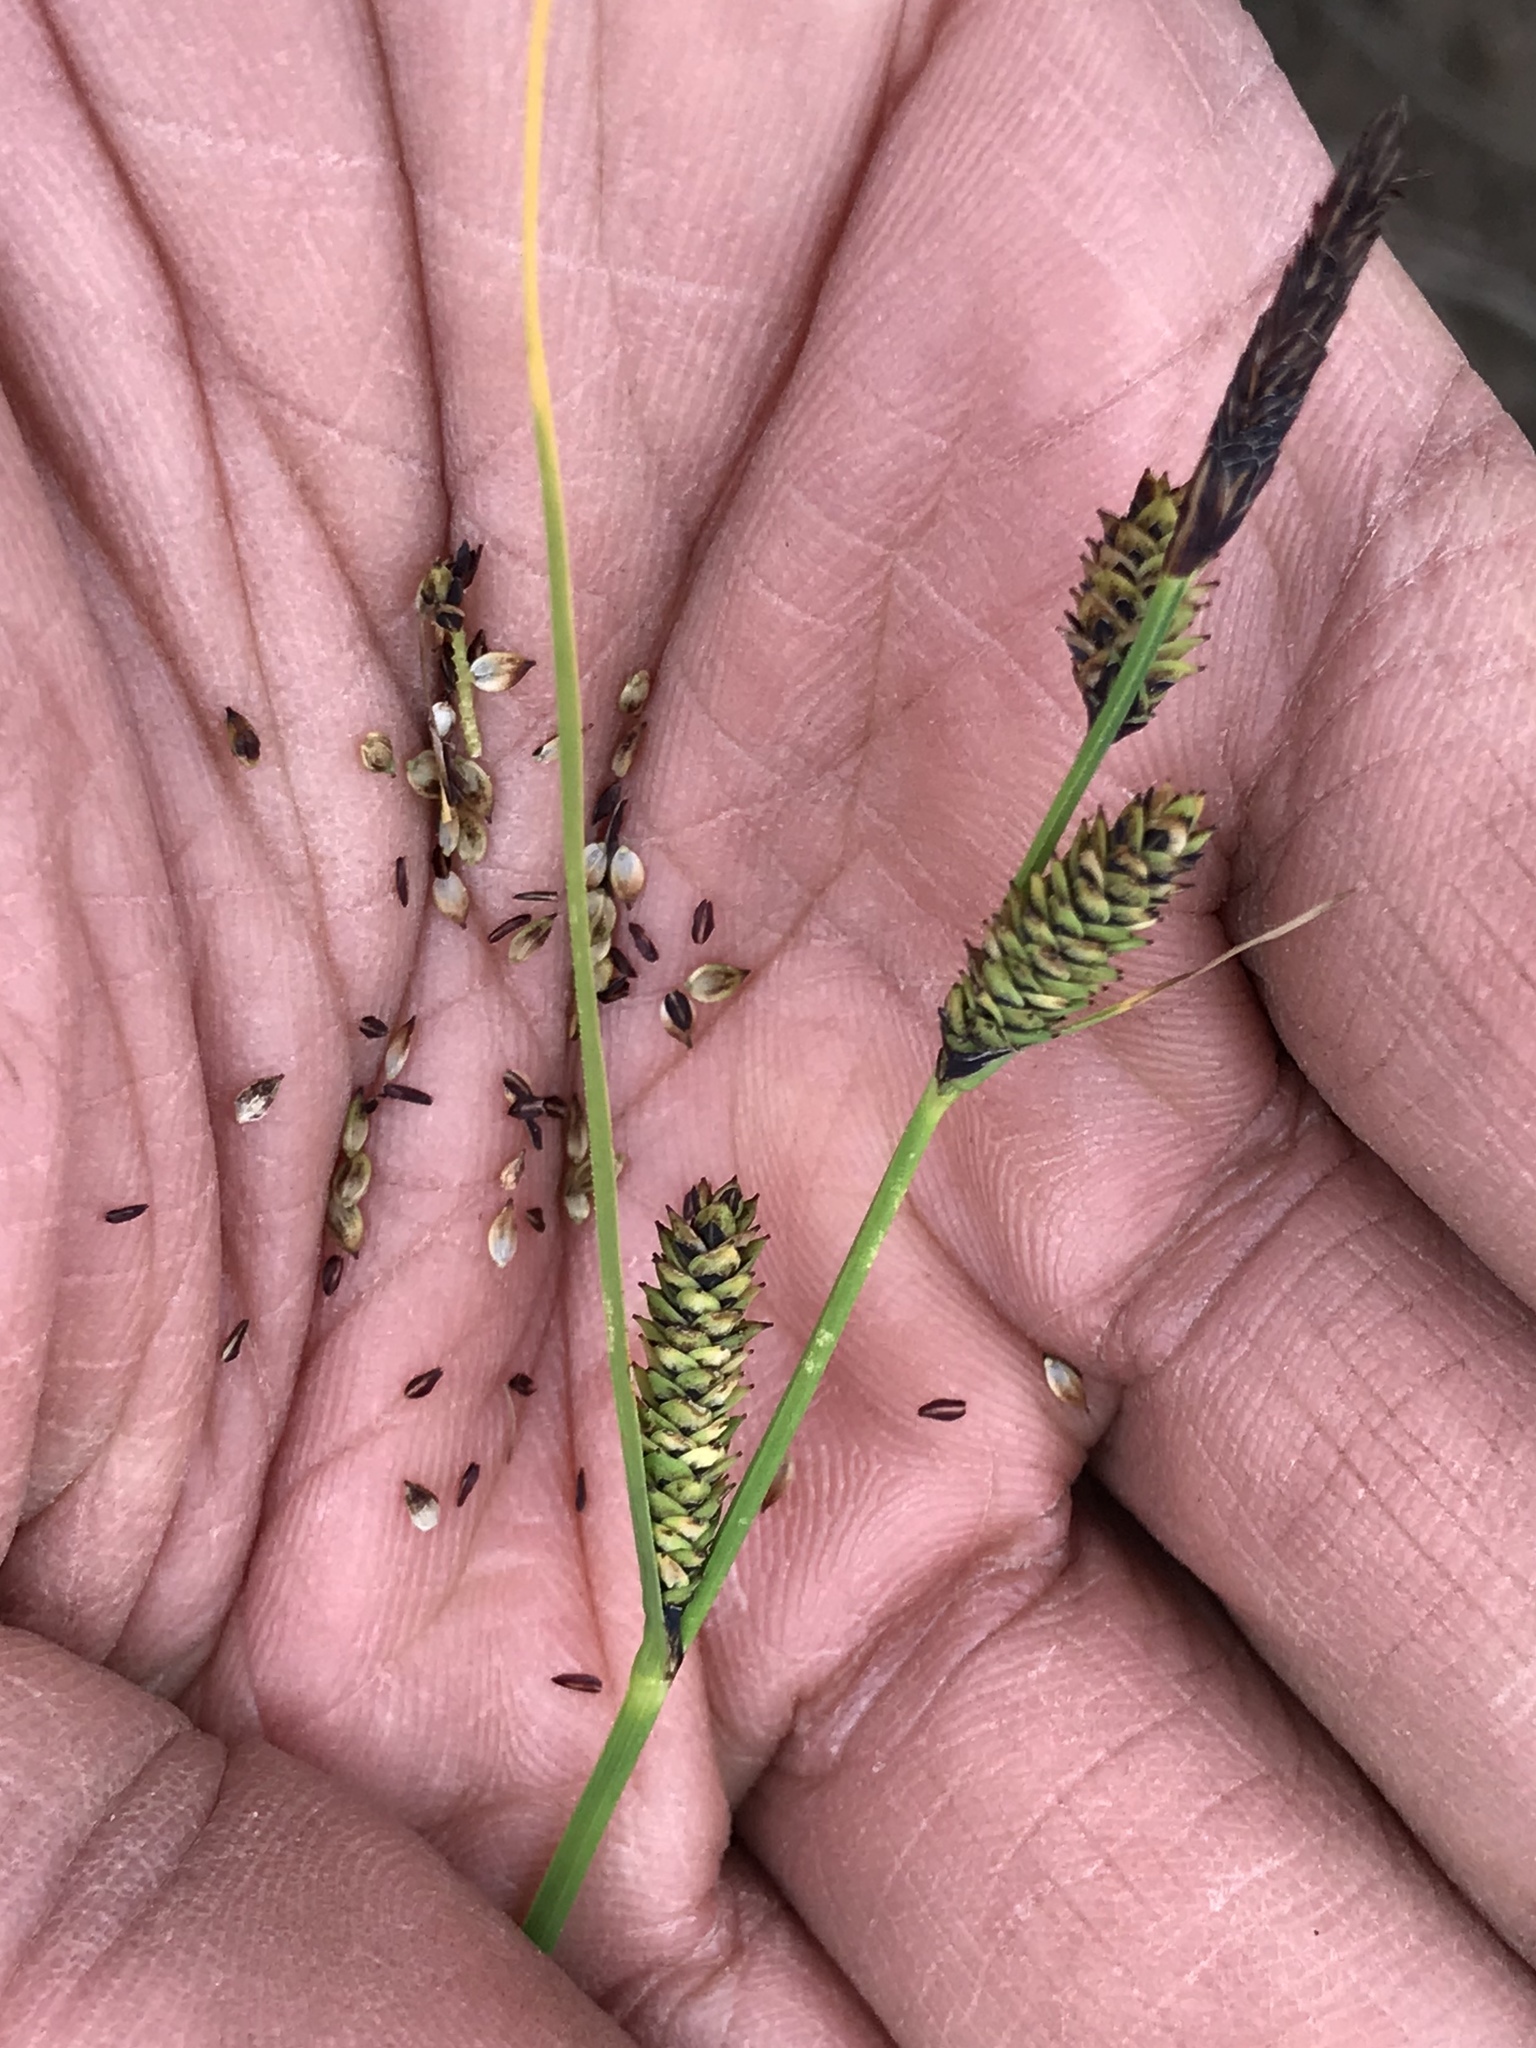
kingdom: Plantae
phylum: Tracheophyta
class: Liliopsida
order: Poales
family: Cyperaceae
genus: Carex
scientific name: Carex aquatilis
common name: Water sedge
